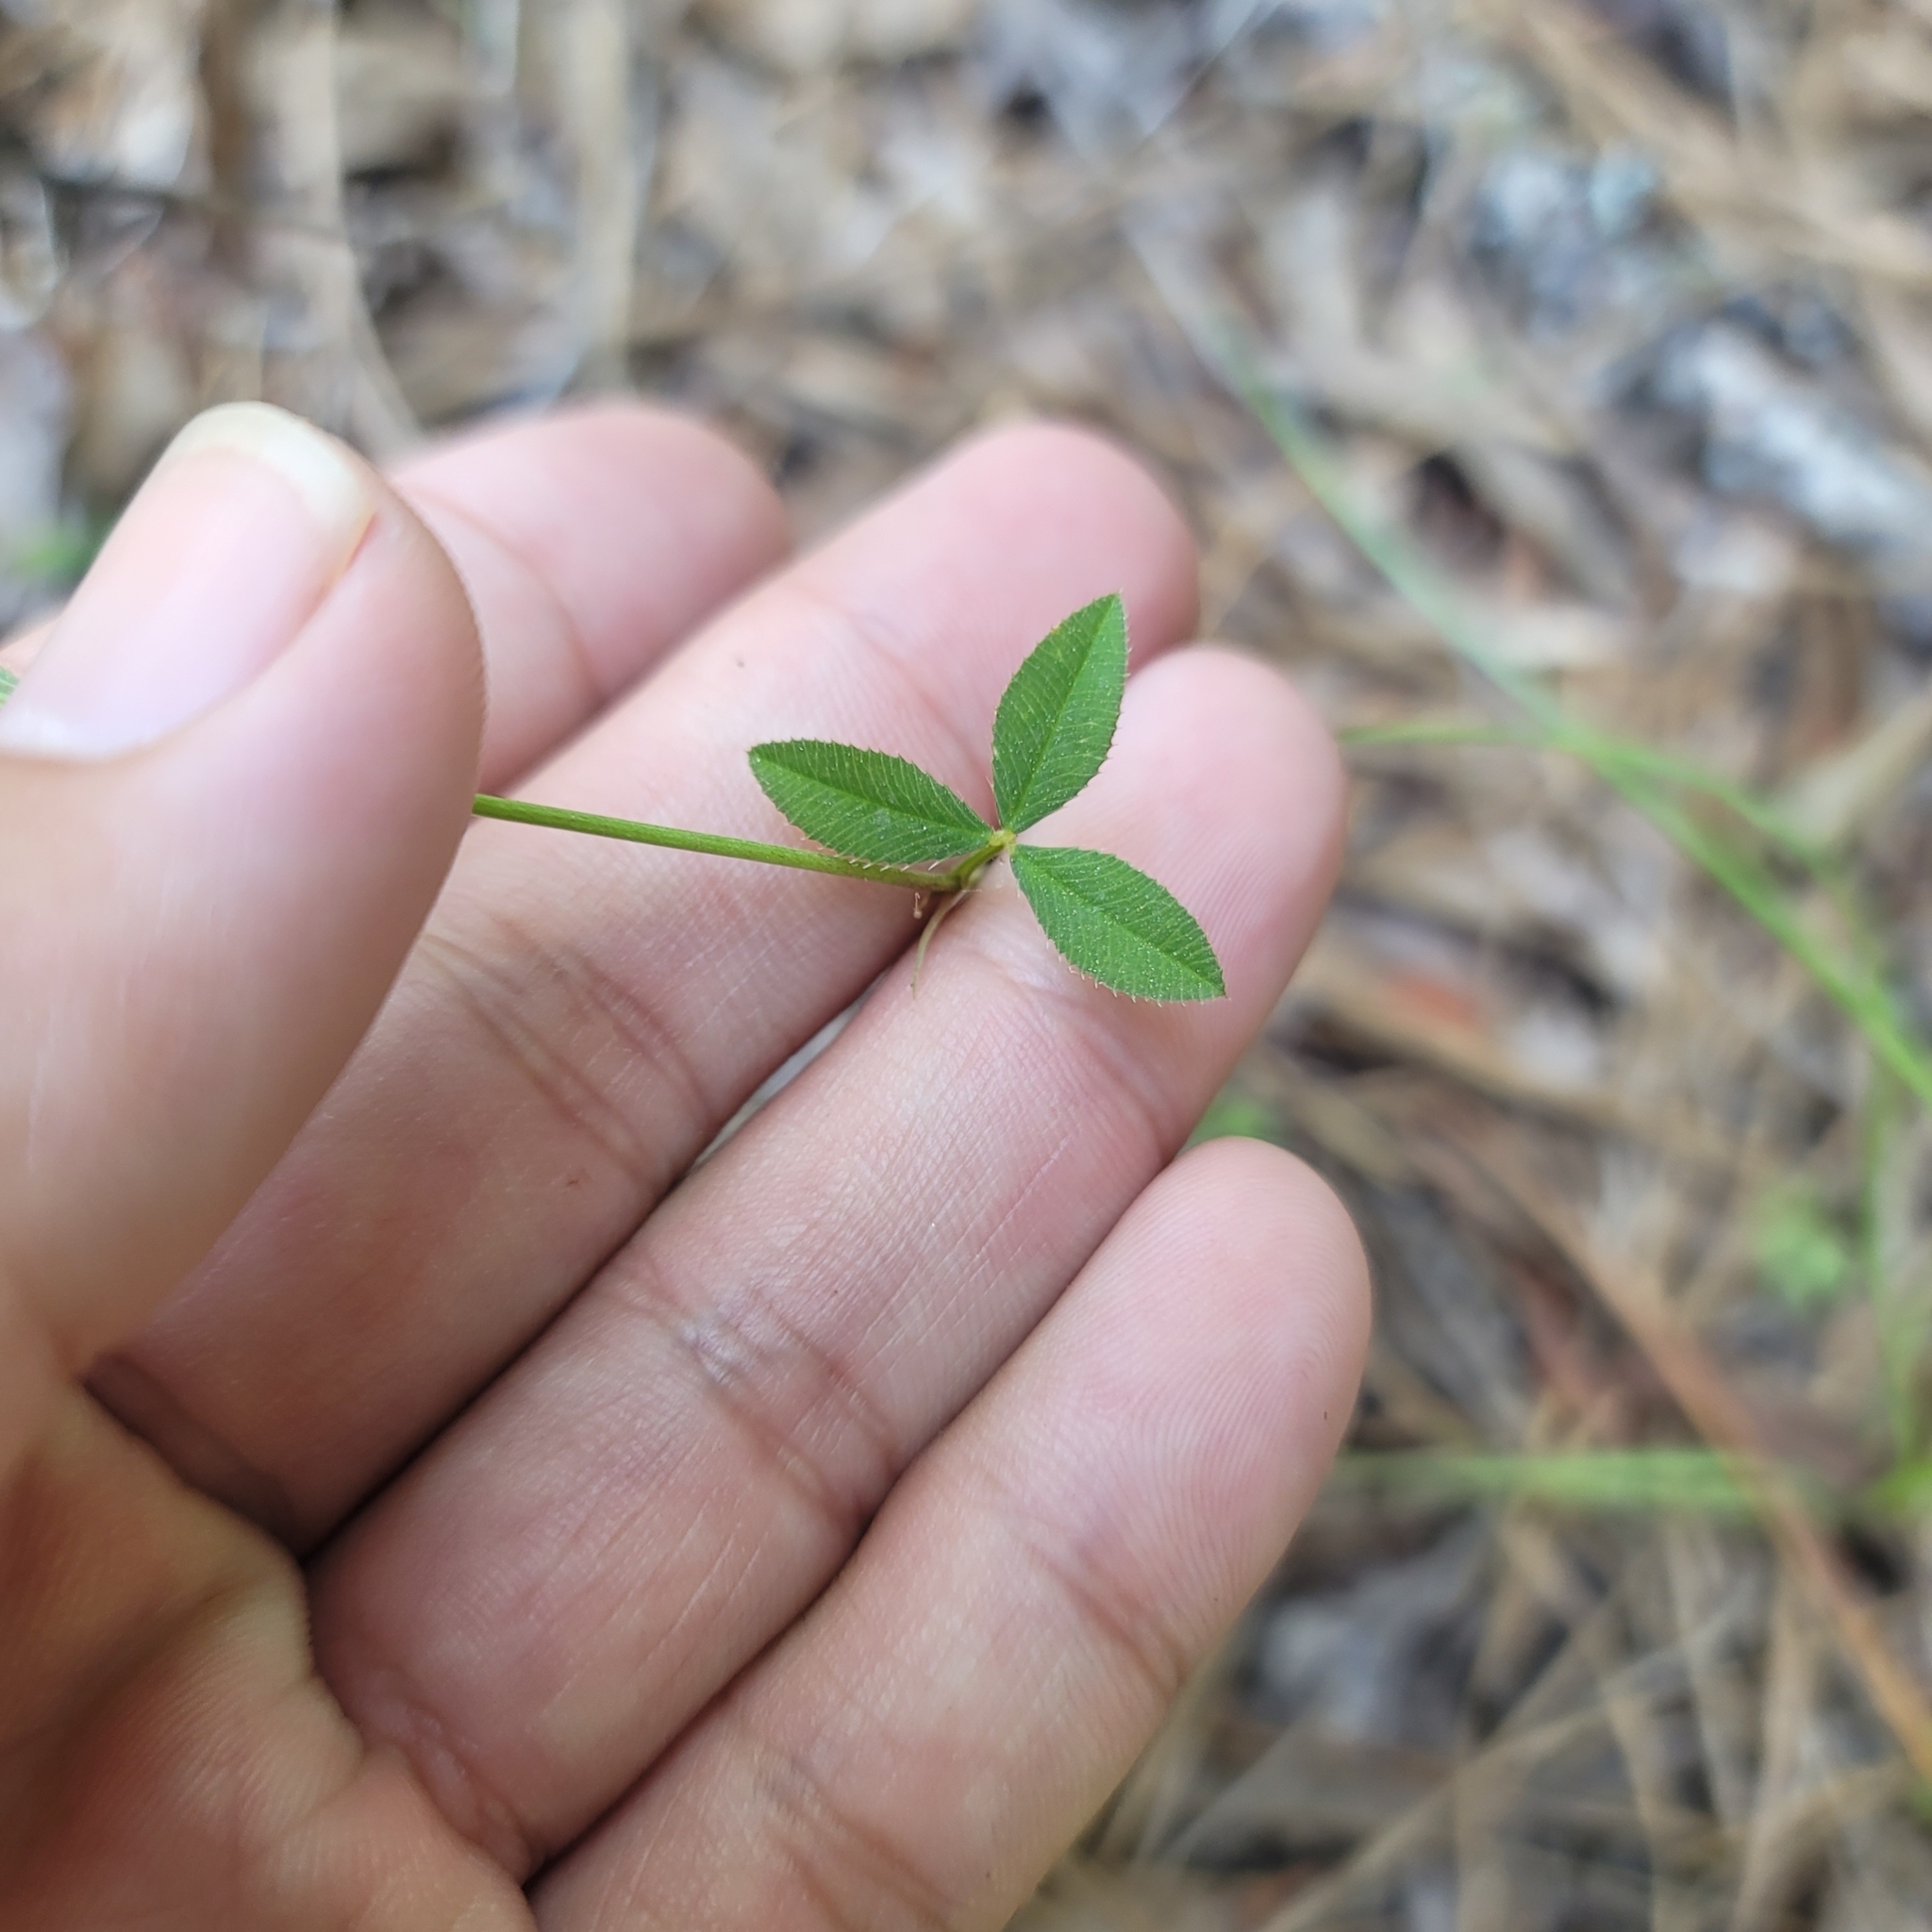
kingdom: Plantae
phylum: Tracheophyta
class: Magnoliopsida
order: Fabales
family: Fabaceae
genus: Trifolium
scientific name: Trifolium vesiculosum
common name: Arrowleaf clover
